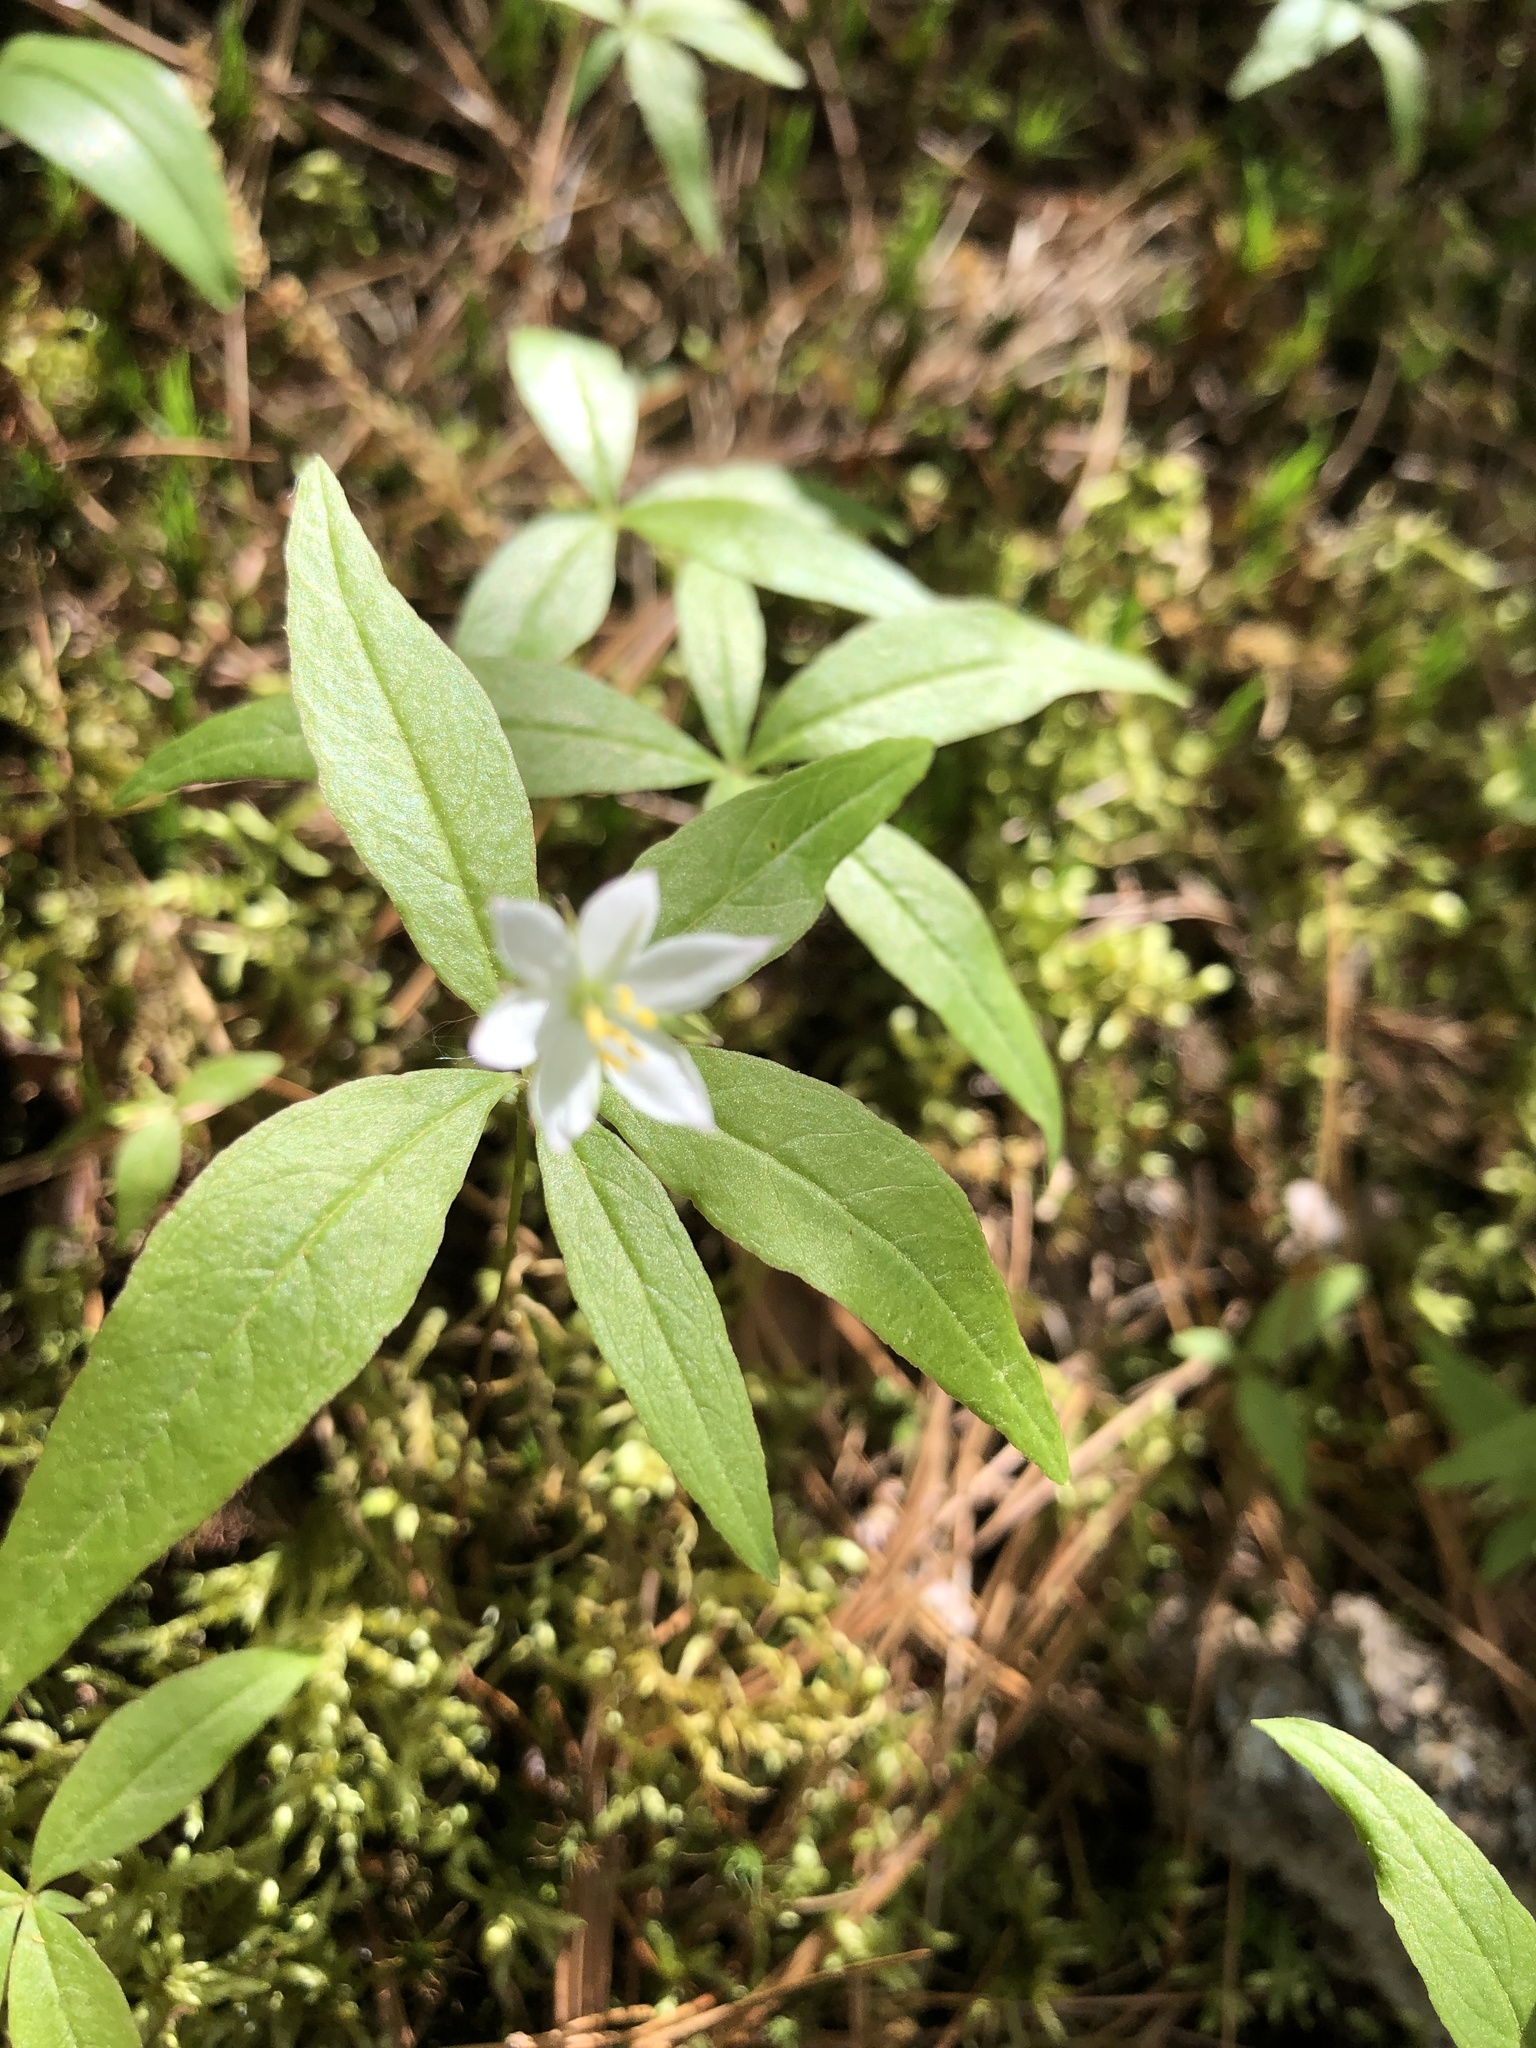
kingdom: Plantae
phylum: Tracheophyta
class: Magnoliopsida
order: Ericales
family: Primulaceae
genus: Lysimachia
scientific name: Lysimachia borealis
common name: American starflower
